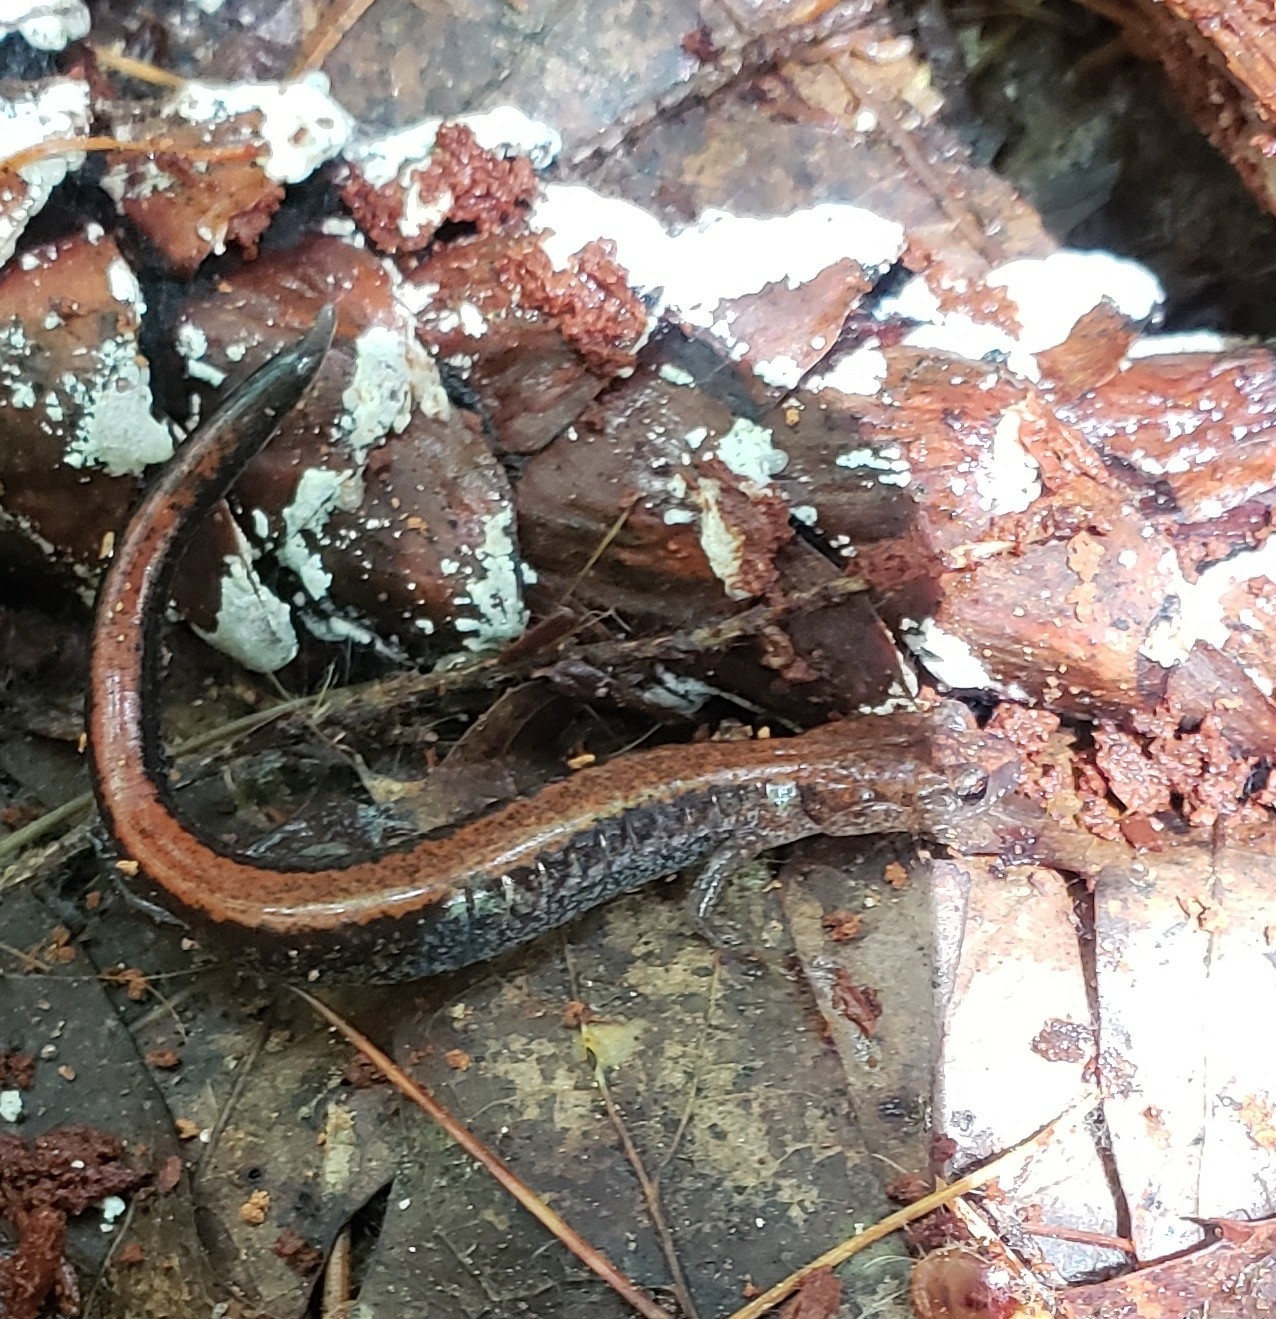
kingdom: Animalia
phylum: Chordata
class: Amphibia
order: Caudata
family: Plethodontidae
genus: Plethodon
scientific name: Plethodon cinereus
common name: Redback salamander
